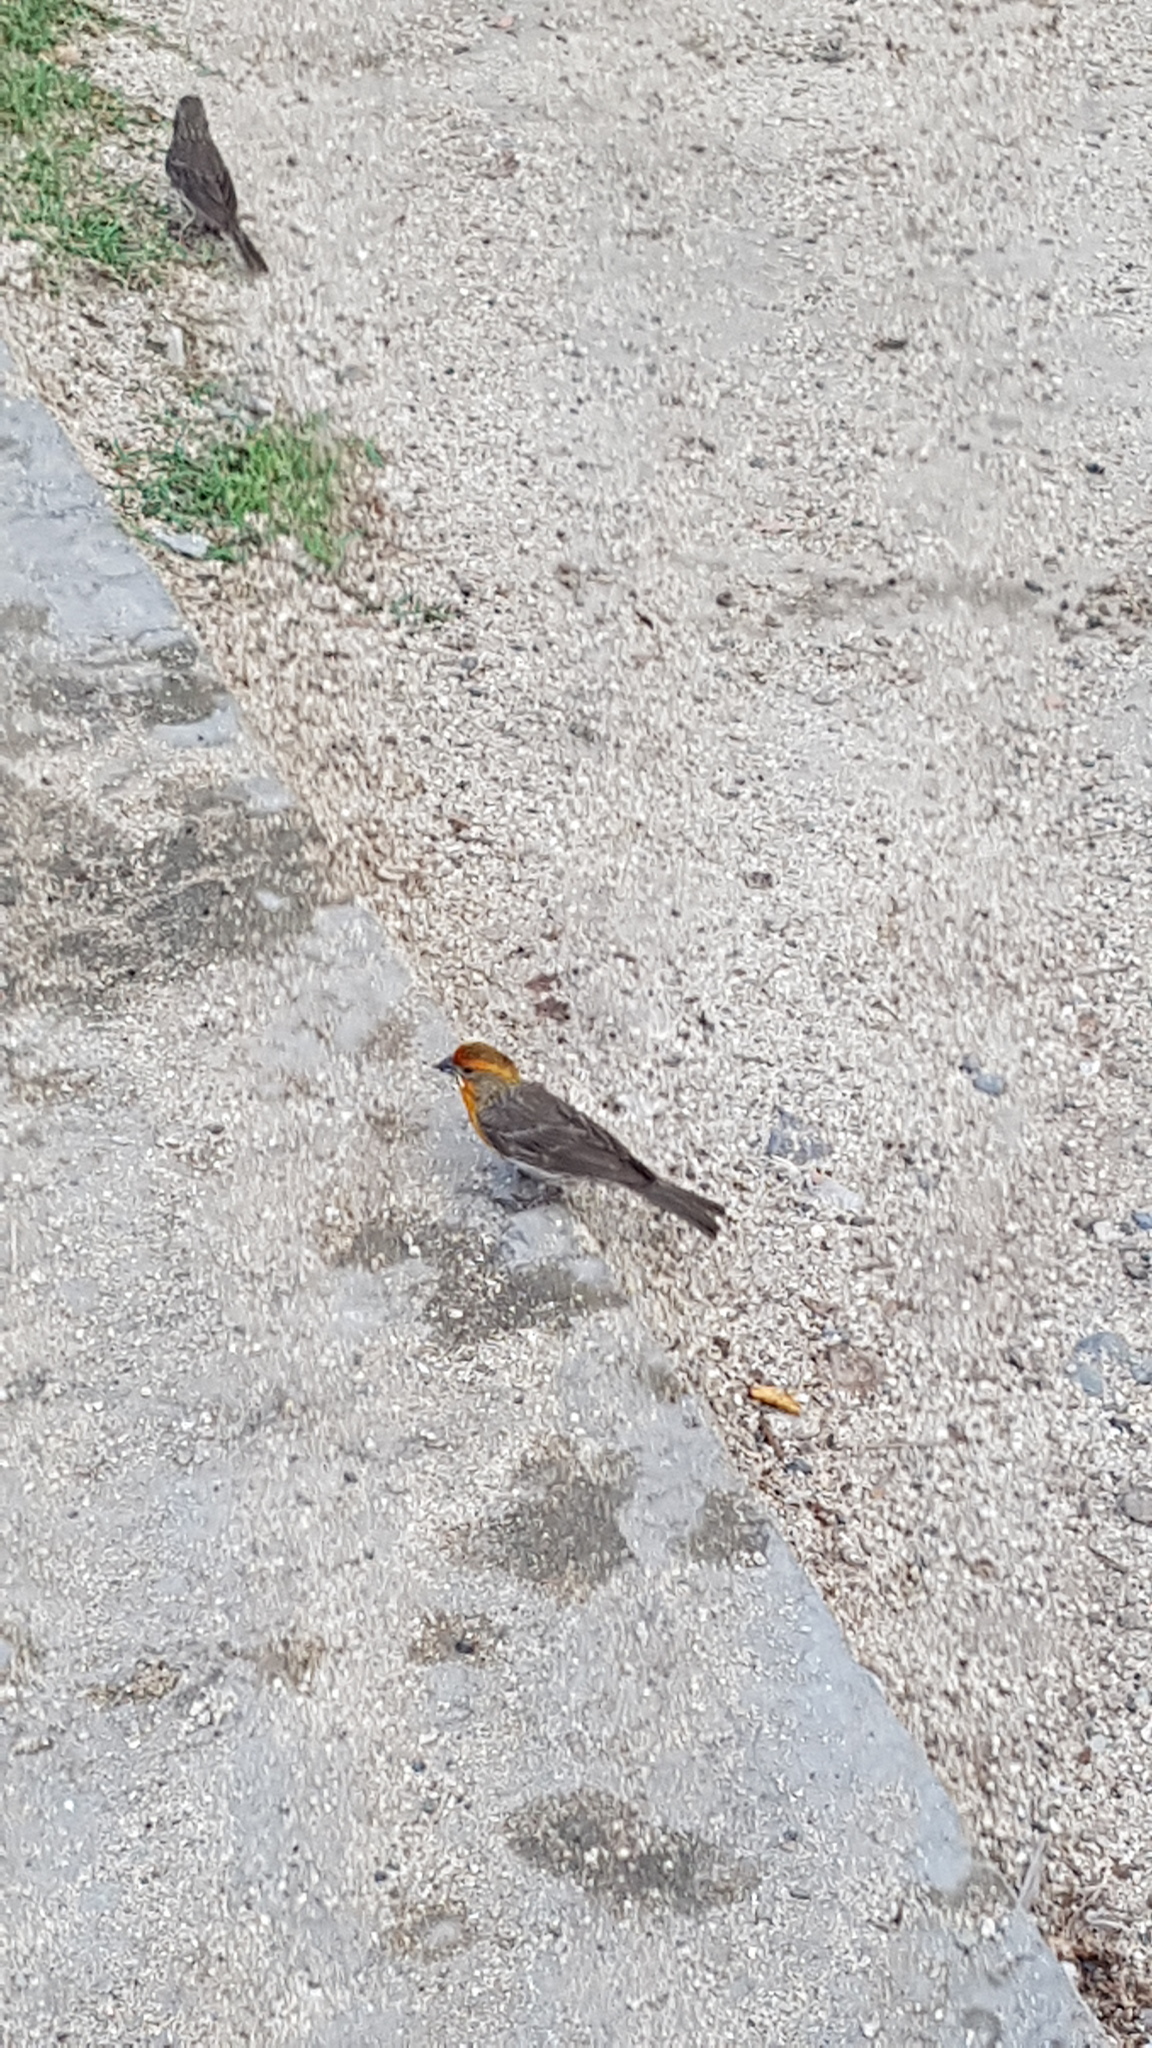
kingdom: Animalia
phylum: Chordata
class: Aves
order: Passeriformes
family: Fringillidae
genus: Haemorhous
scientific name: Haemorhous mexicanus
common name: House finch
